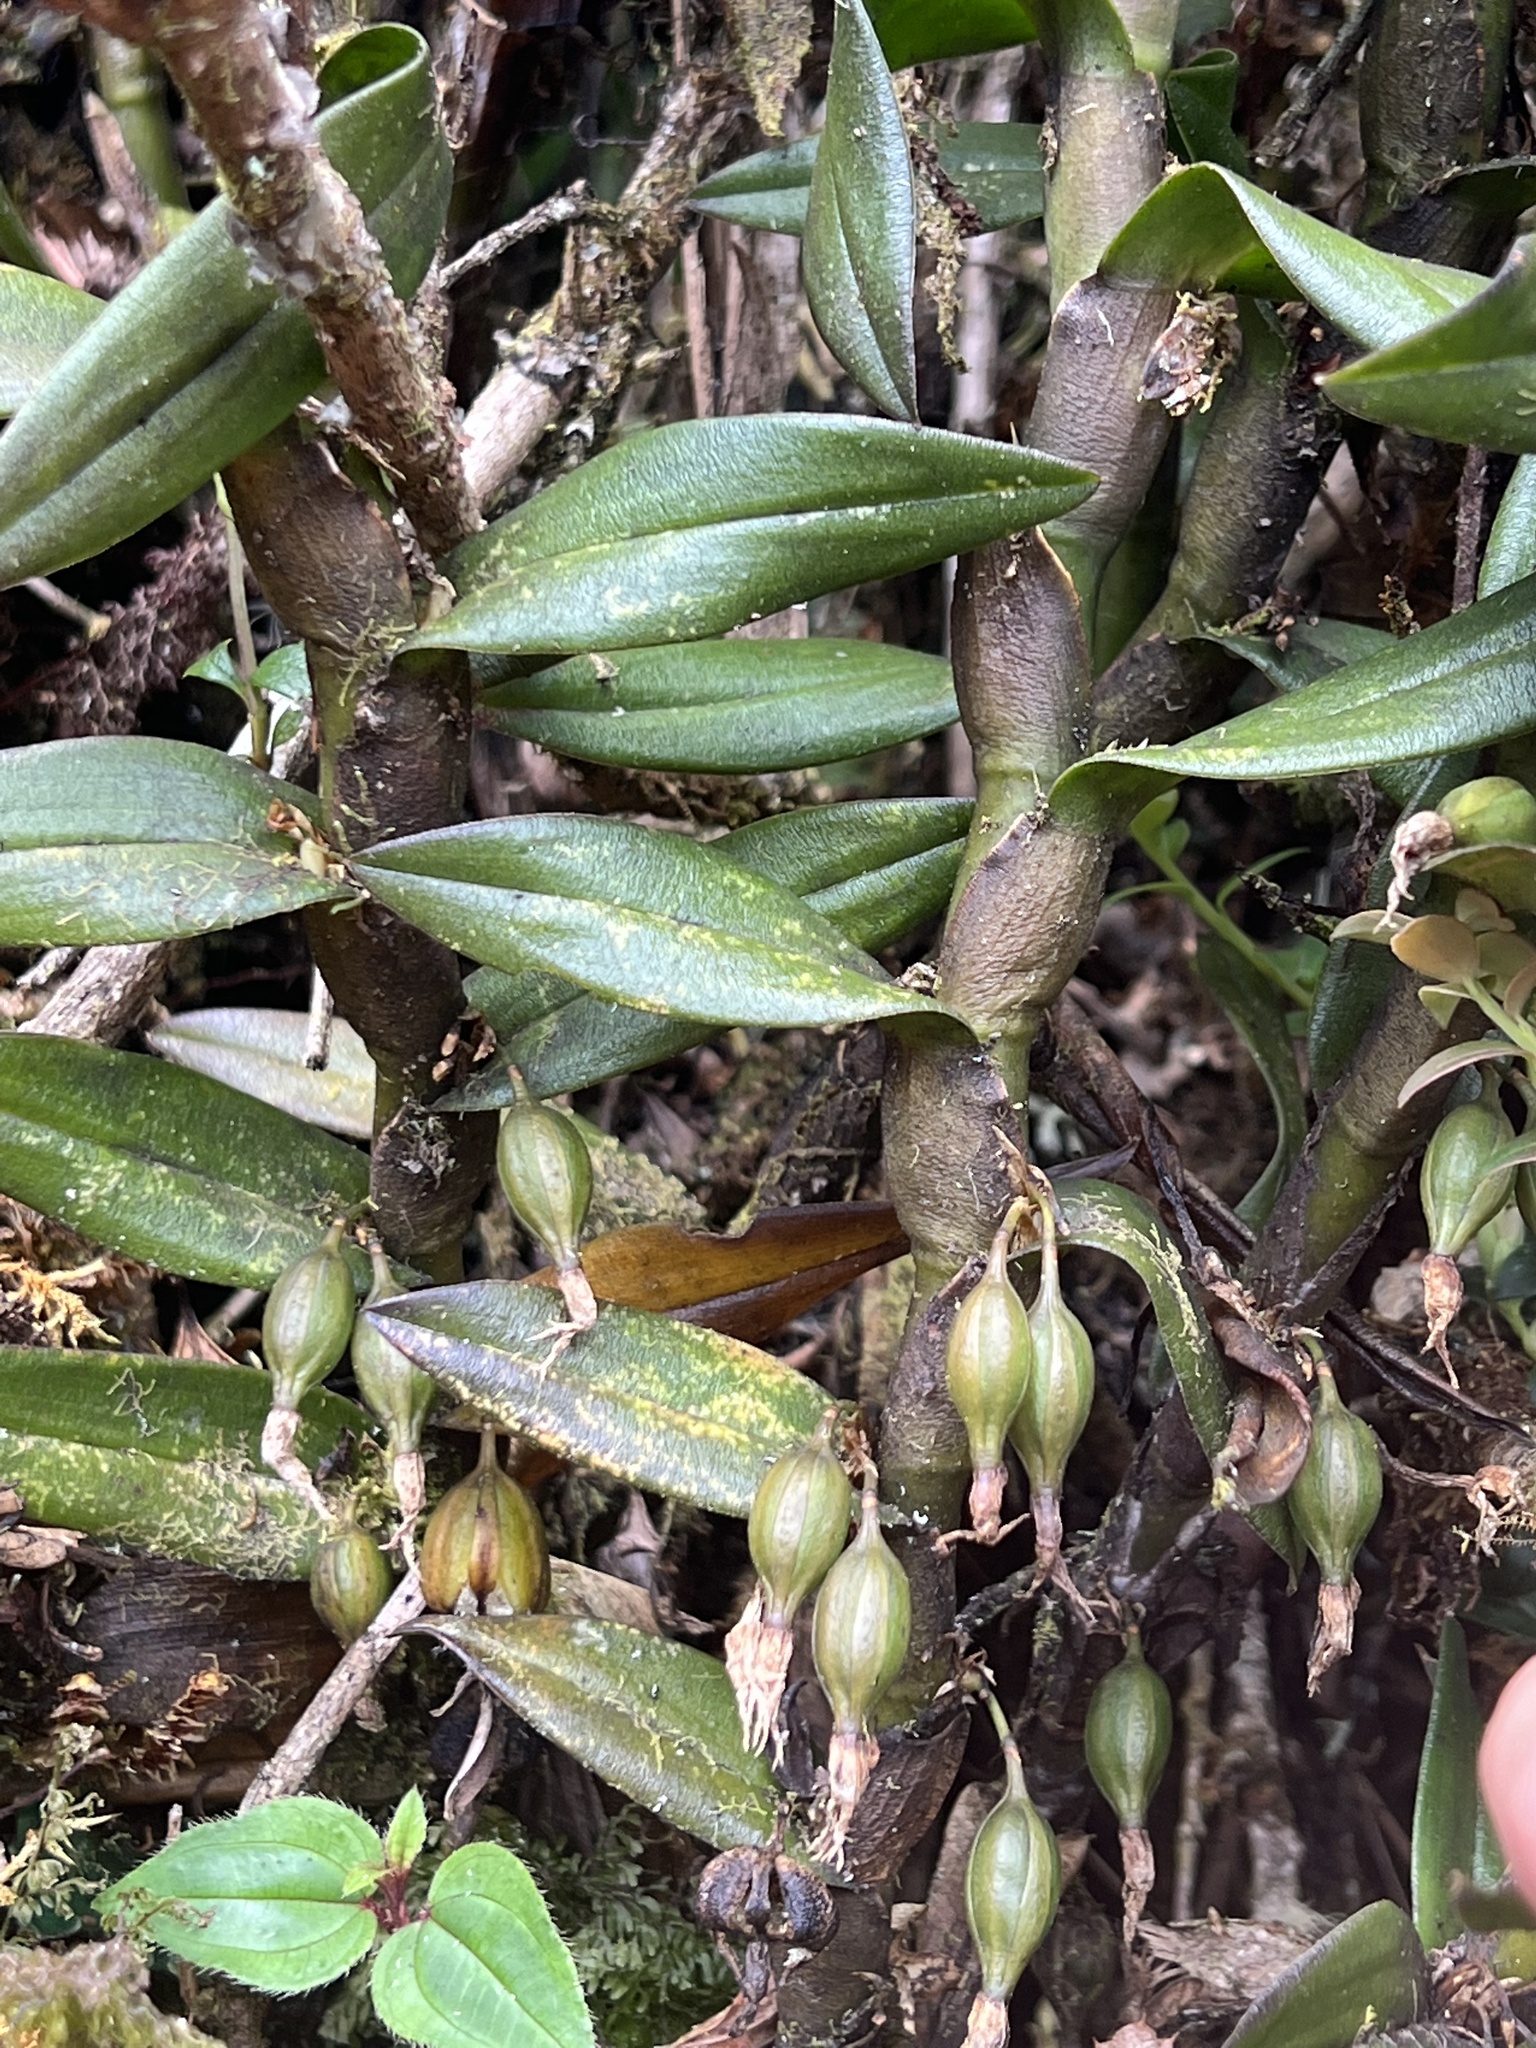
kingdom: Plantae
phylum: Tracheophyta
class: Liliopsida
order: Asparagales
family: Orchidaceae
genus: Epidendrum
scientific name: Epidendrum ardens
